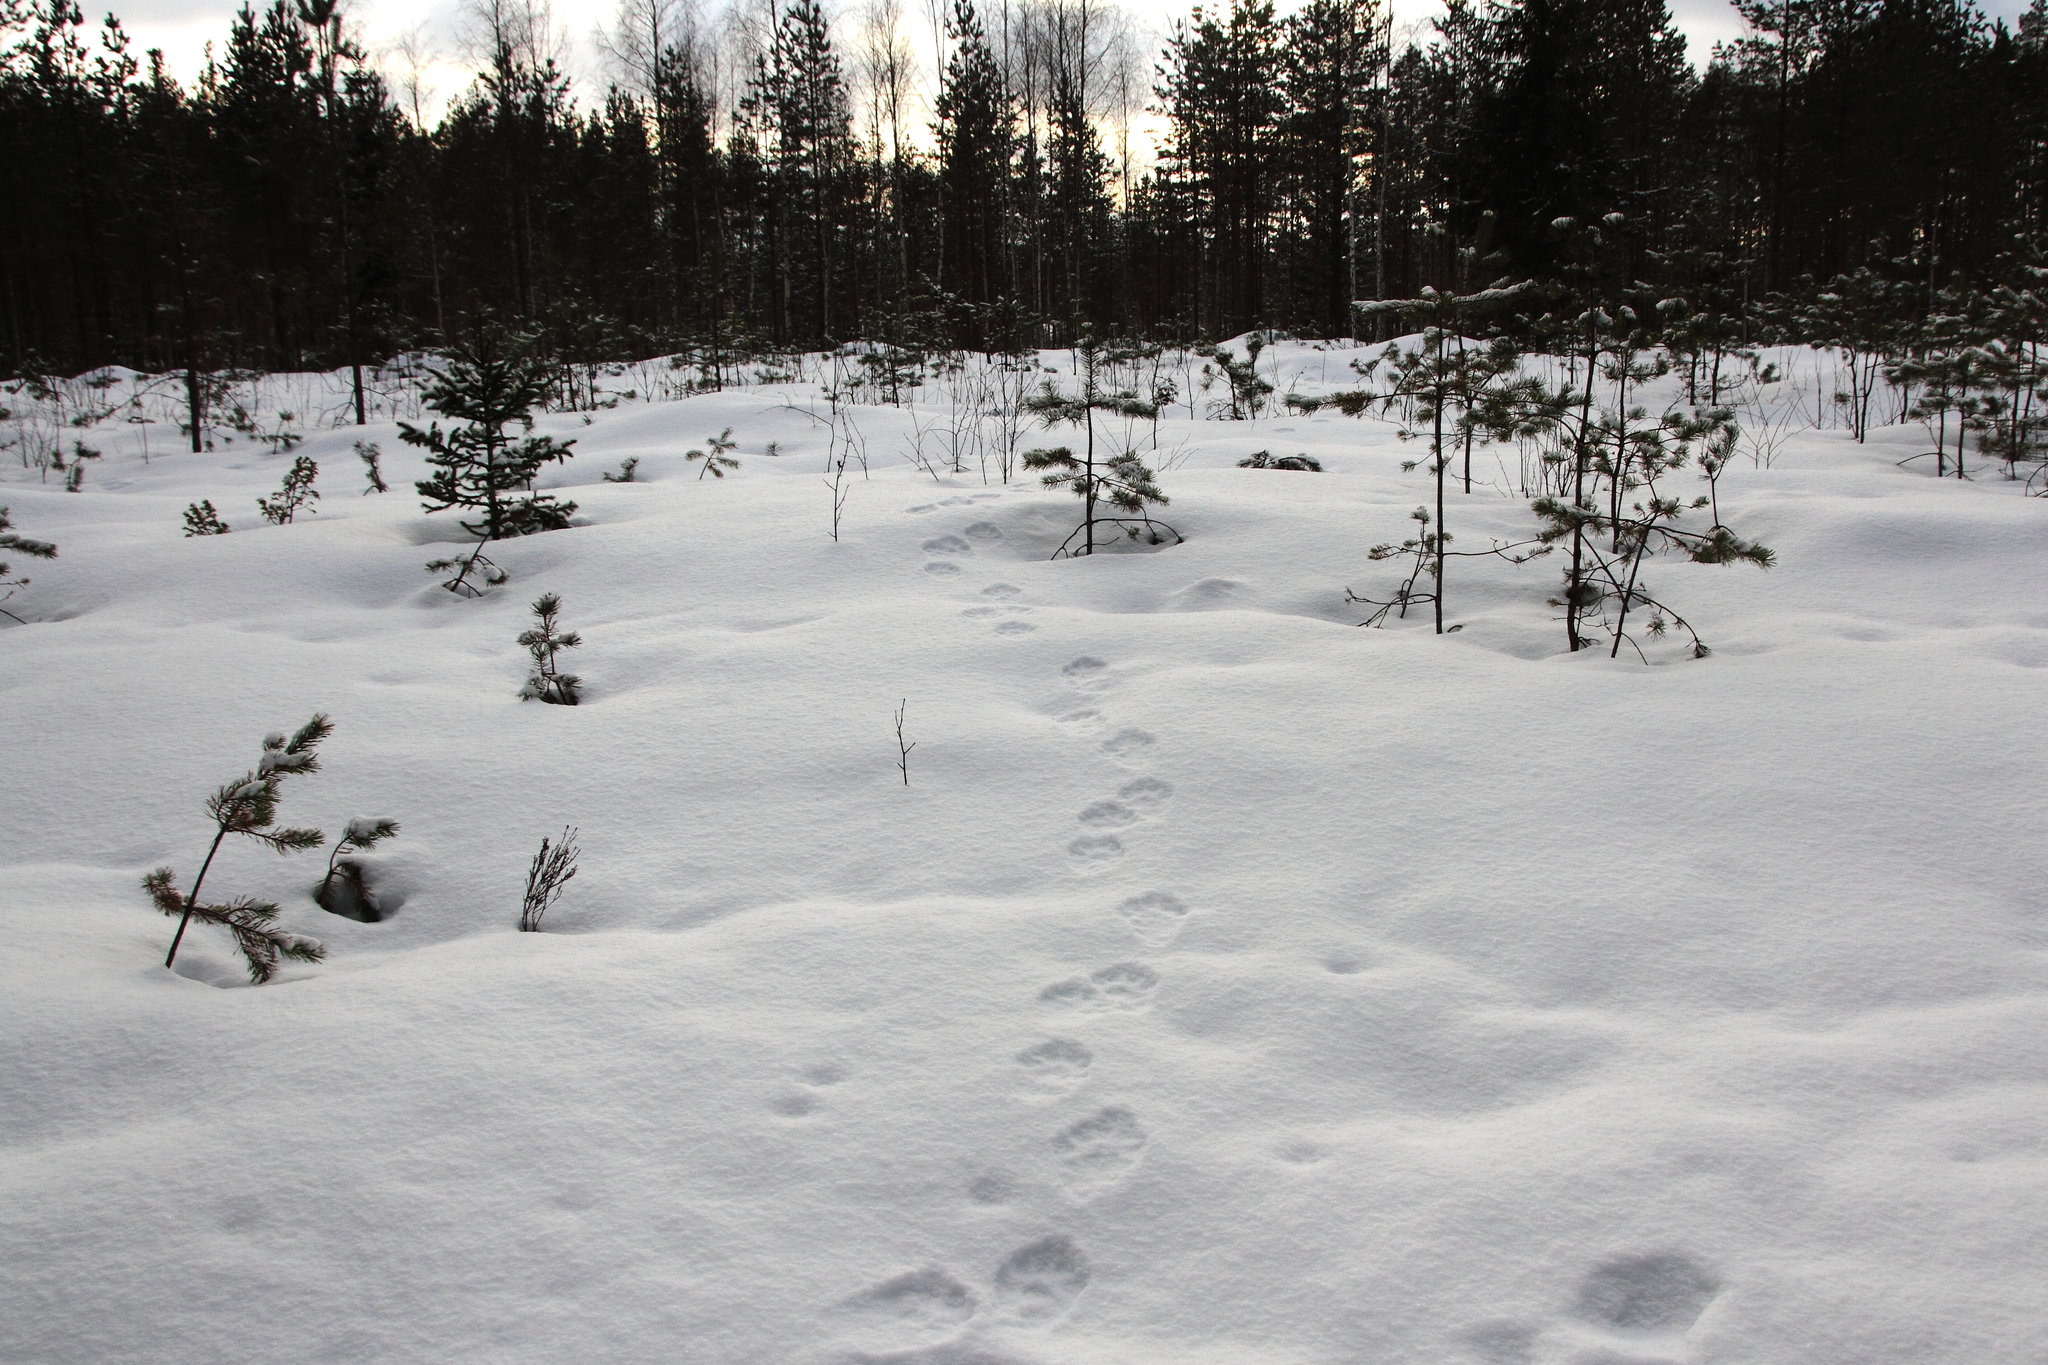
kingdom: Animalia
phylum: Chordata
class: Mammalia
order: Carnivora
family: Mustelidae
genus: Gulo
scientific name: Gulo gulo
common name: Wolverine
